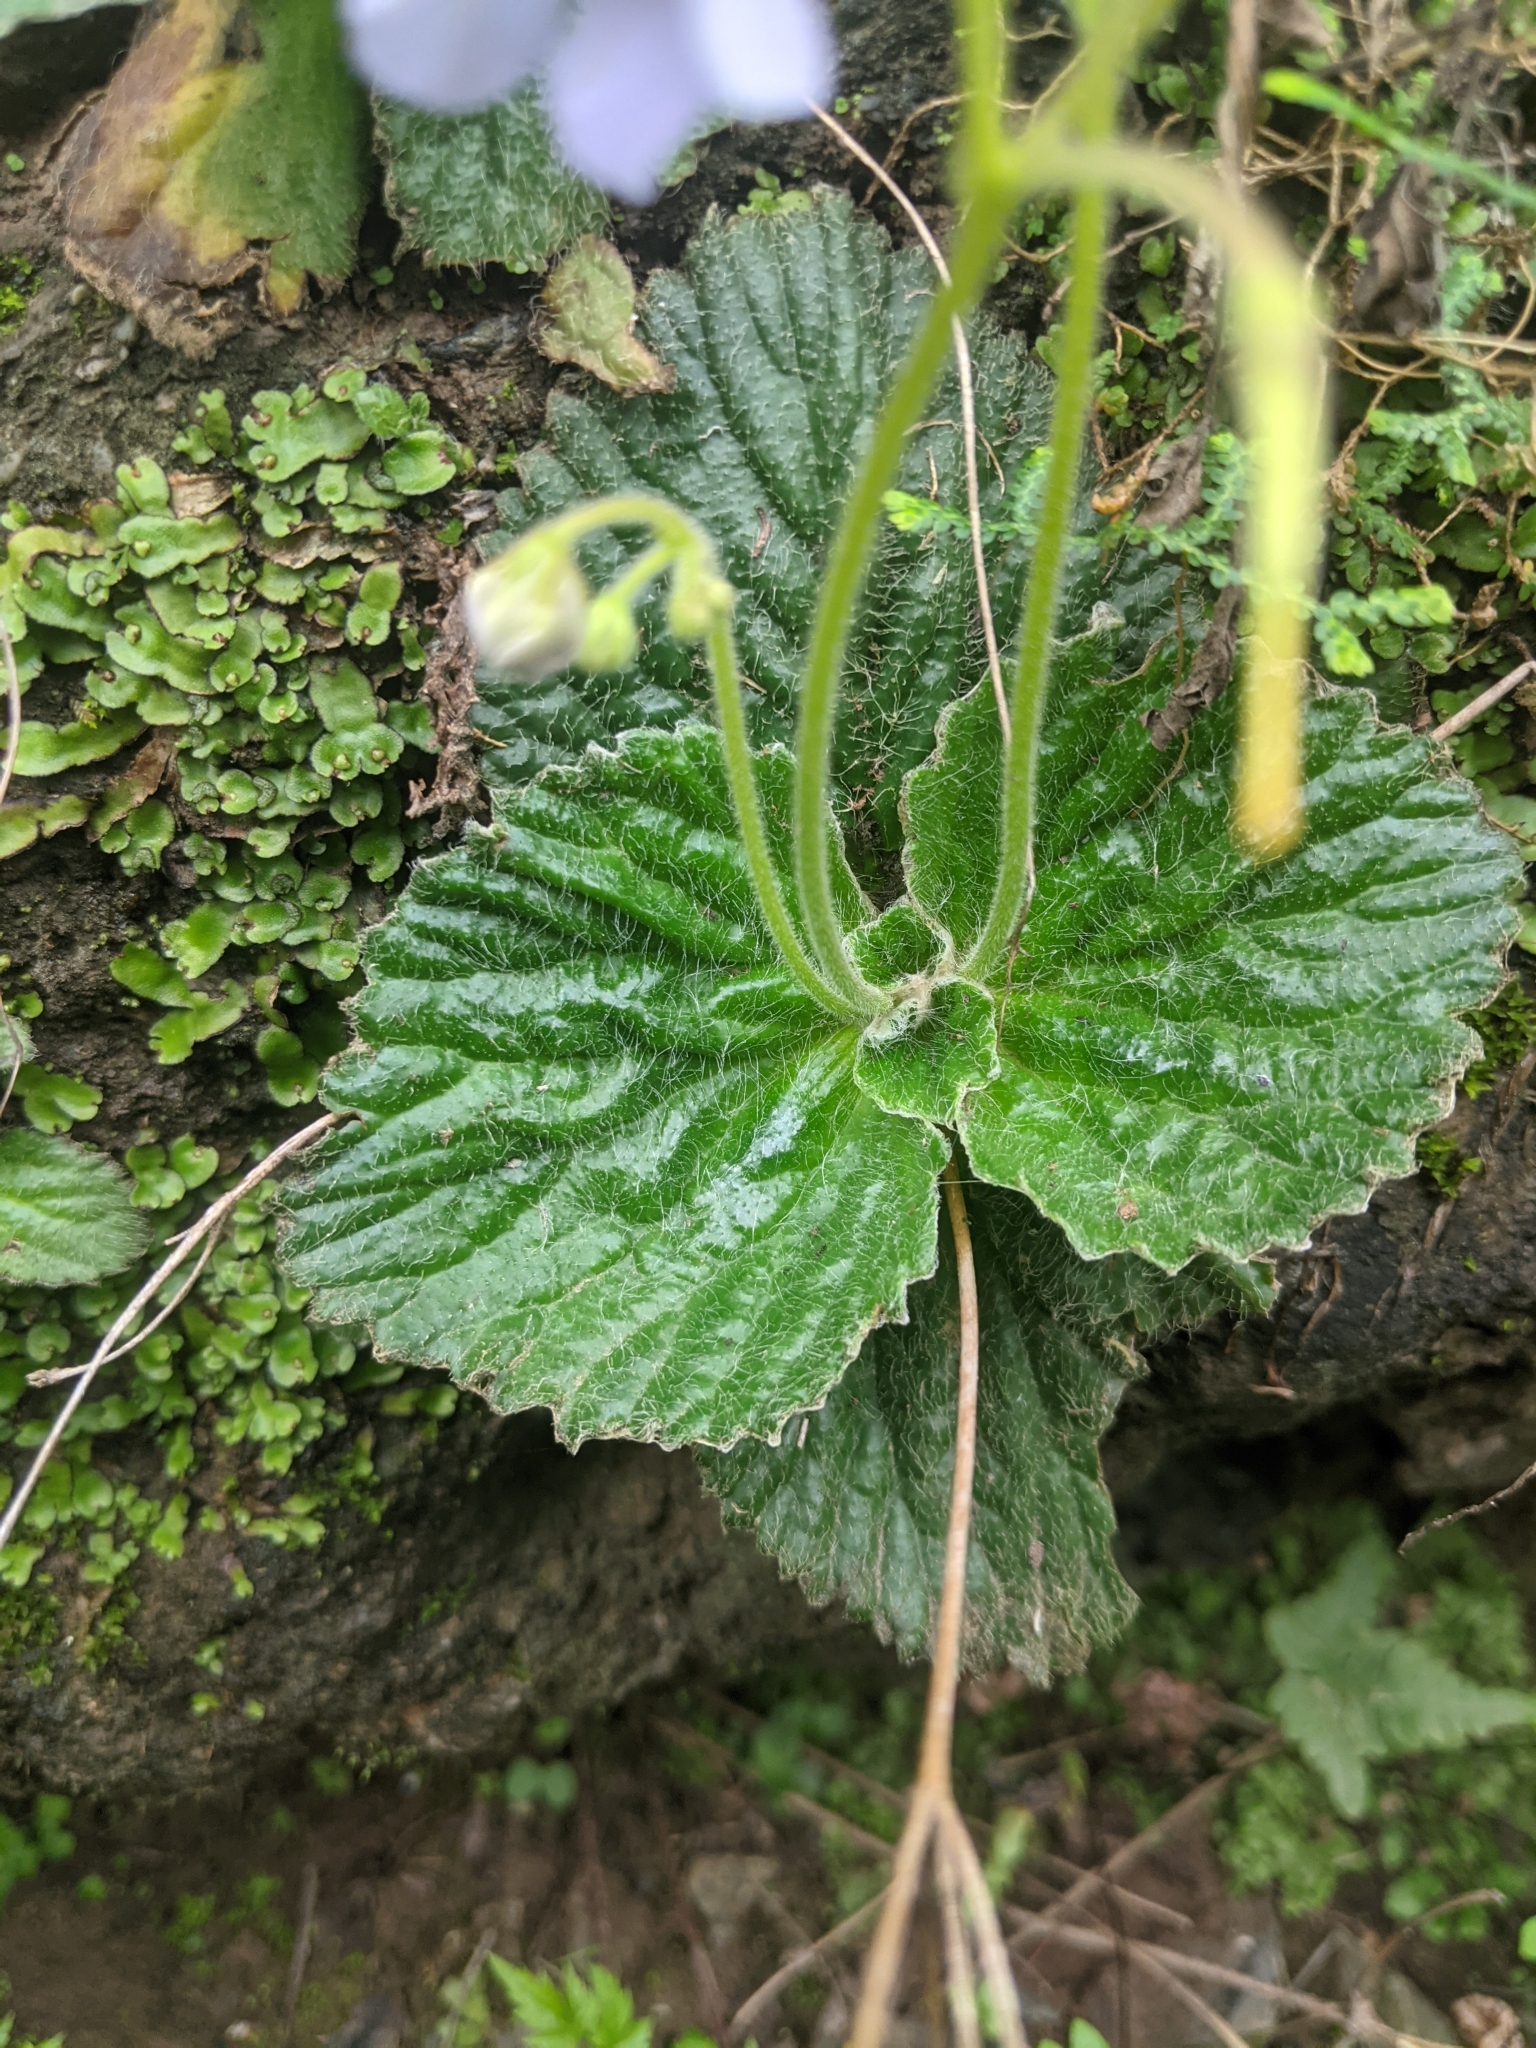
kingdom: Plantae
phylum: Tracheophyta
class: Magnoliopsida
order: Lamiales
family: Gesneriaceae
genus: Dorcoceras
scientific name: Dorcoceras hygrometricum
